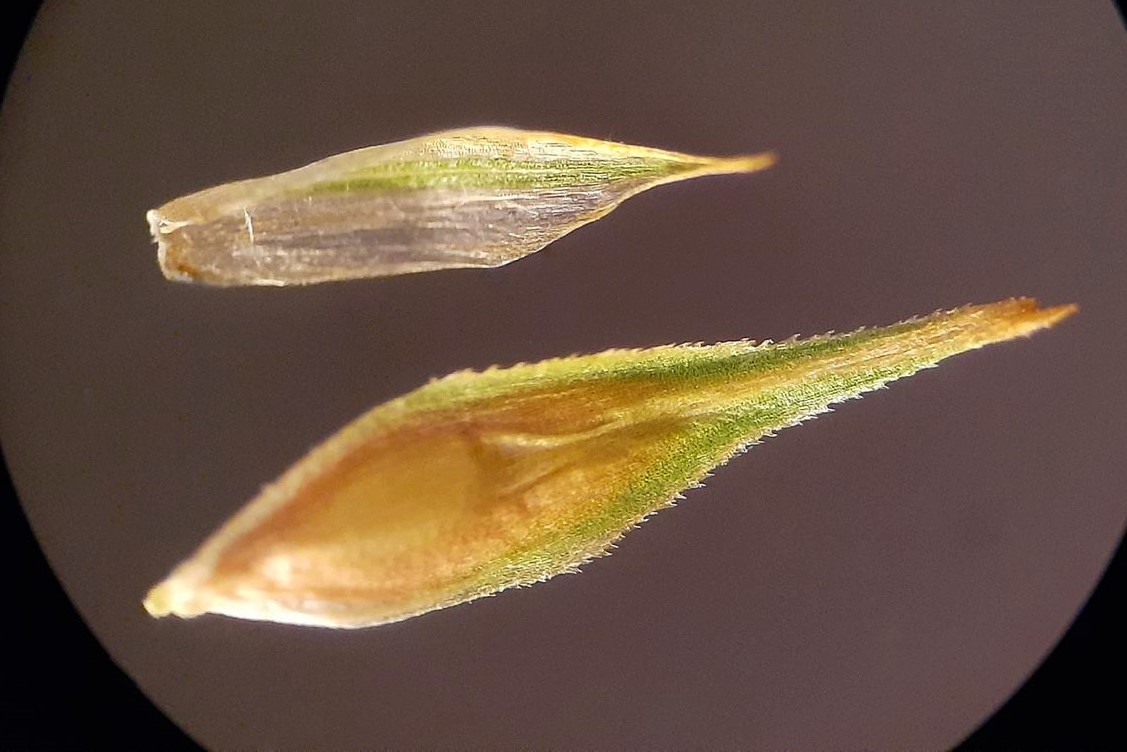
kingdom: Plantae
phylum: Tracheophyta
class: Liliopsida
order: Poales
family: Cyperaceae
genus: Carex
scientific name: Carex crawfordii
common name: Crawford's sedge
